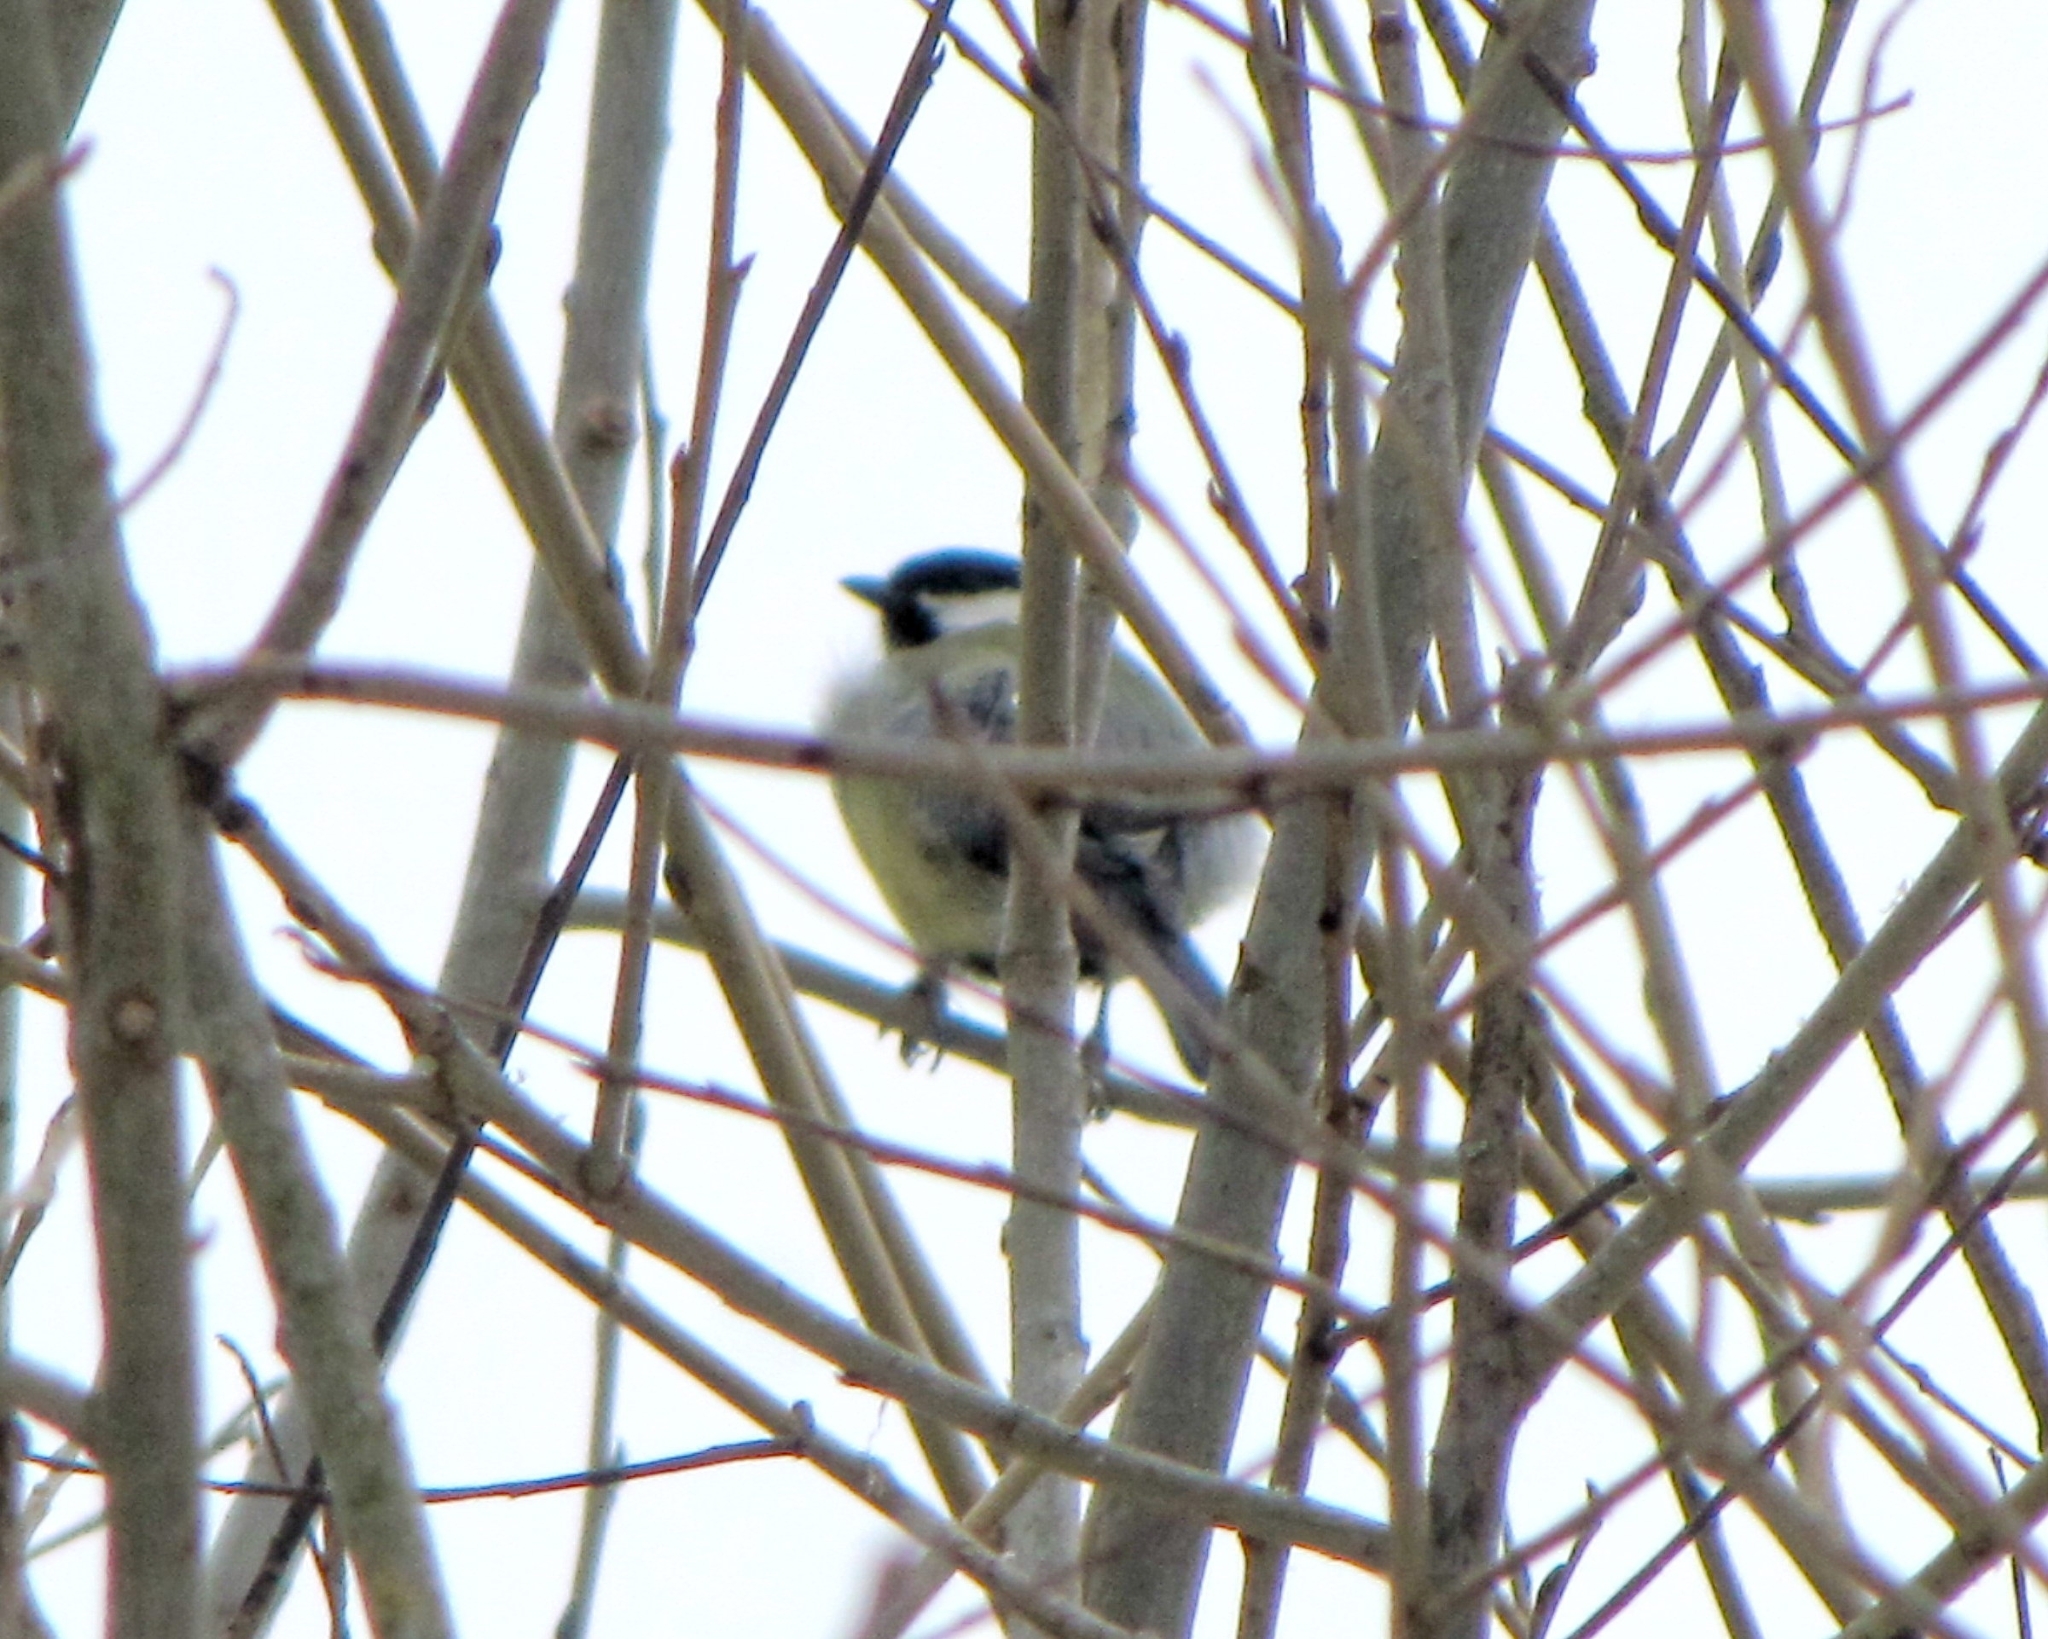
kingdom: Animalia
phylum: Chordata
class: Aves
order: Passeriformes
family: Paridae
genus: Parus
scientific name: Parus major
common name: Great tit
